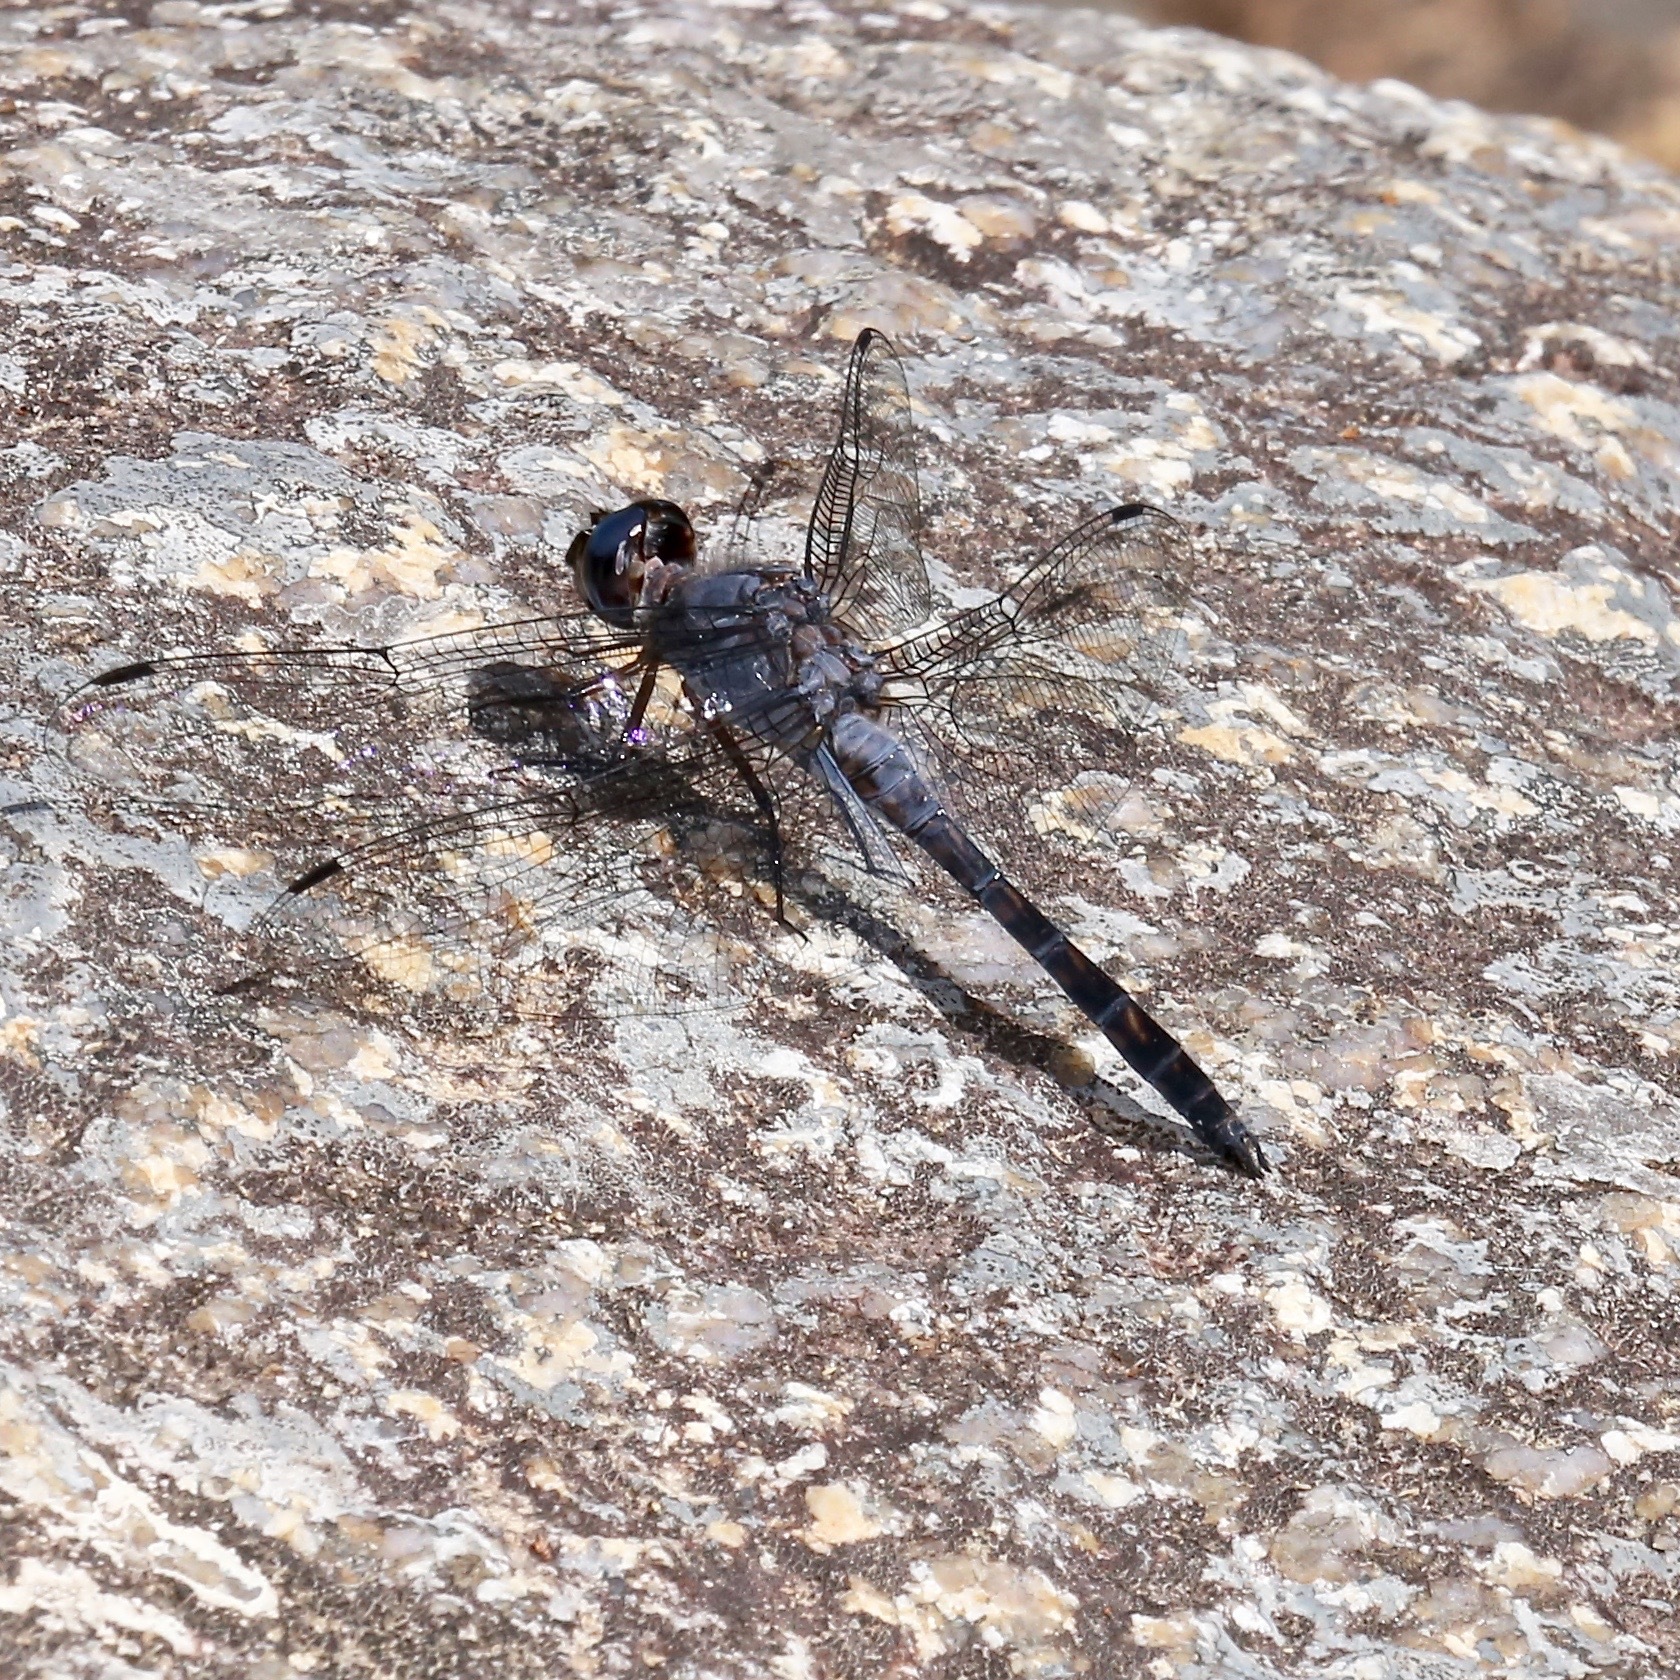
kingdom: Animalia
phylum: Arthropoda
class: Insecta
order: Odonata
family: Libellulidae
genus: Paltothemis
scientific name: Paltothemis cyanosoma
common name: Blue rock skimmer
